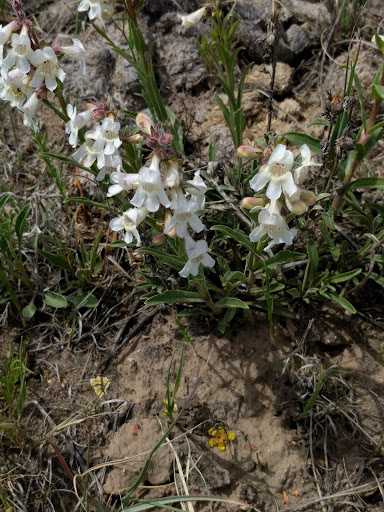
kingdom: Plantae
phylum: Tracheophyta
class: Magnoliopsida
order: Lamiales
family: Plantaginaceae
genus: Penstemon
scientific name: Penstemon albidus
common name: White beardtongue
